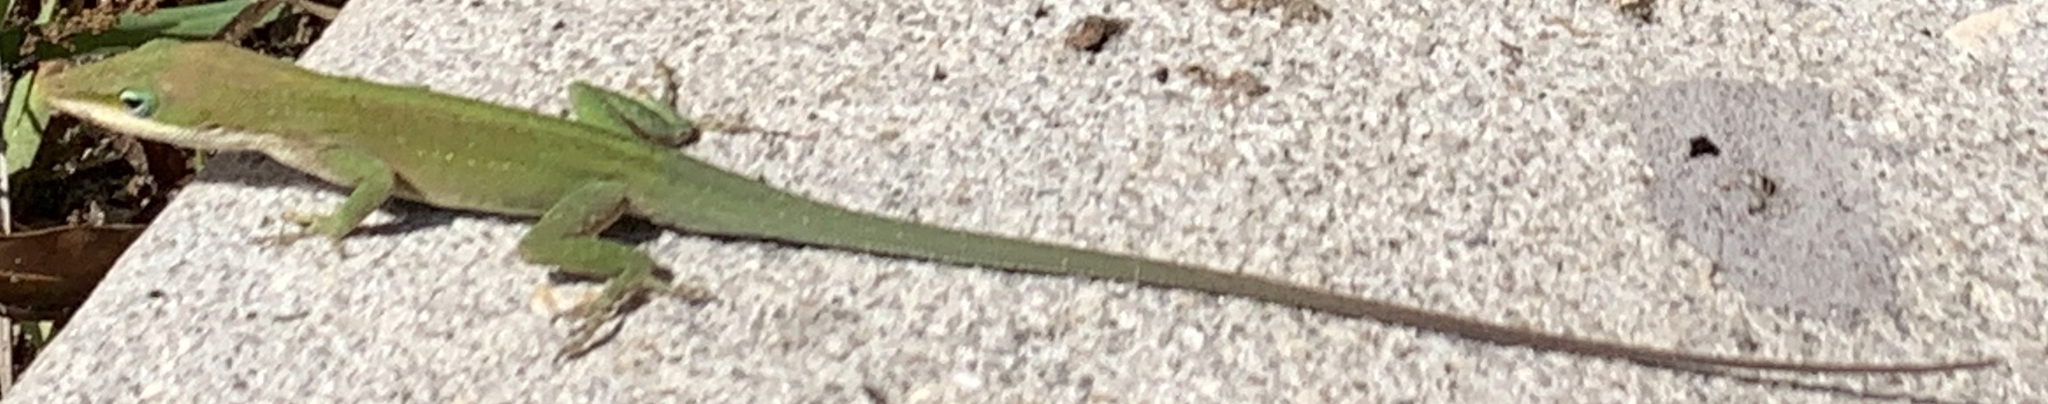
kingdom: Animalia
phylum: Chordata
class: Squamata
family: Dactyloidae
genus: Anolis
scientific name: Anolis carolinensis
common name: Green anole
